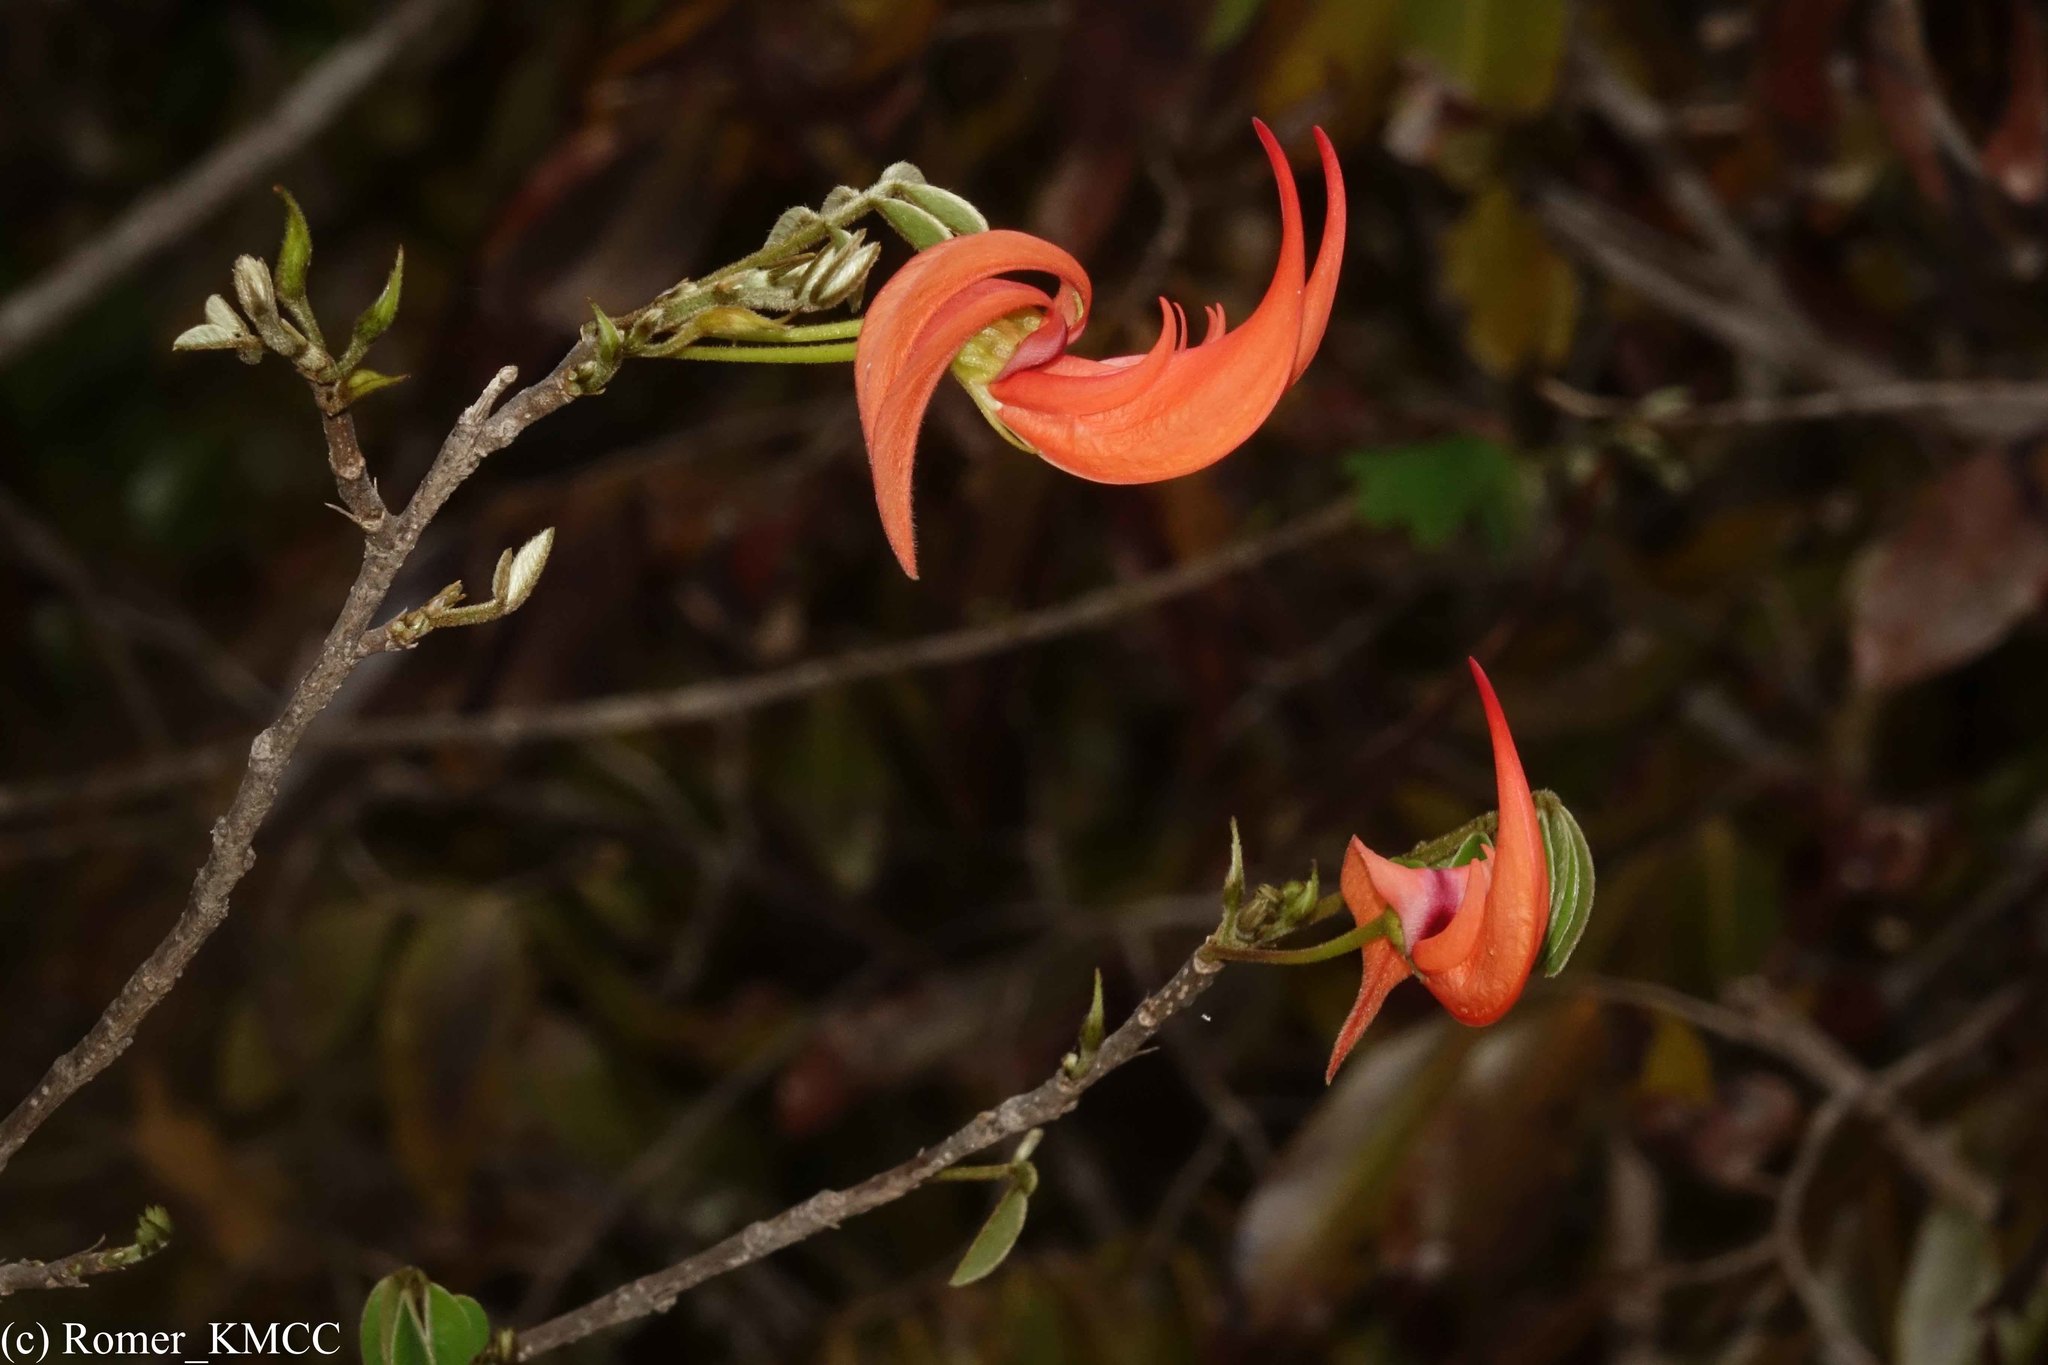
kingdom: Plantae
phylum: Tracheophyta
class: Magnoliopsida
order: Fabales
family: Fabaceae
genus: Chadsia
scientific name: Chadsia versicolor
